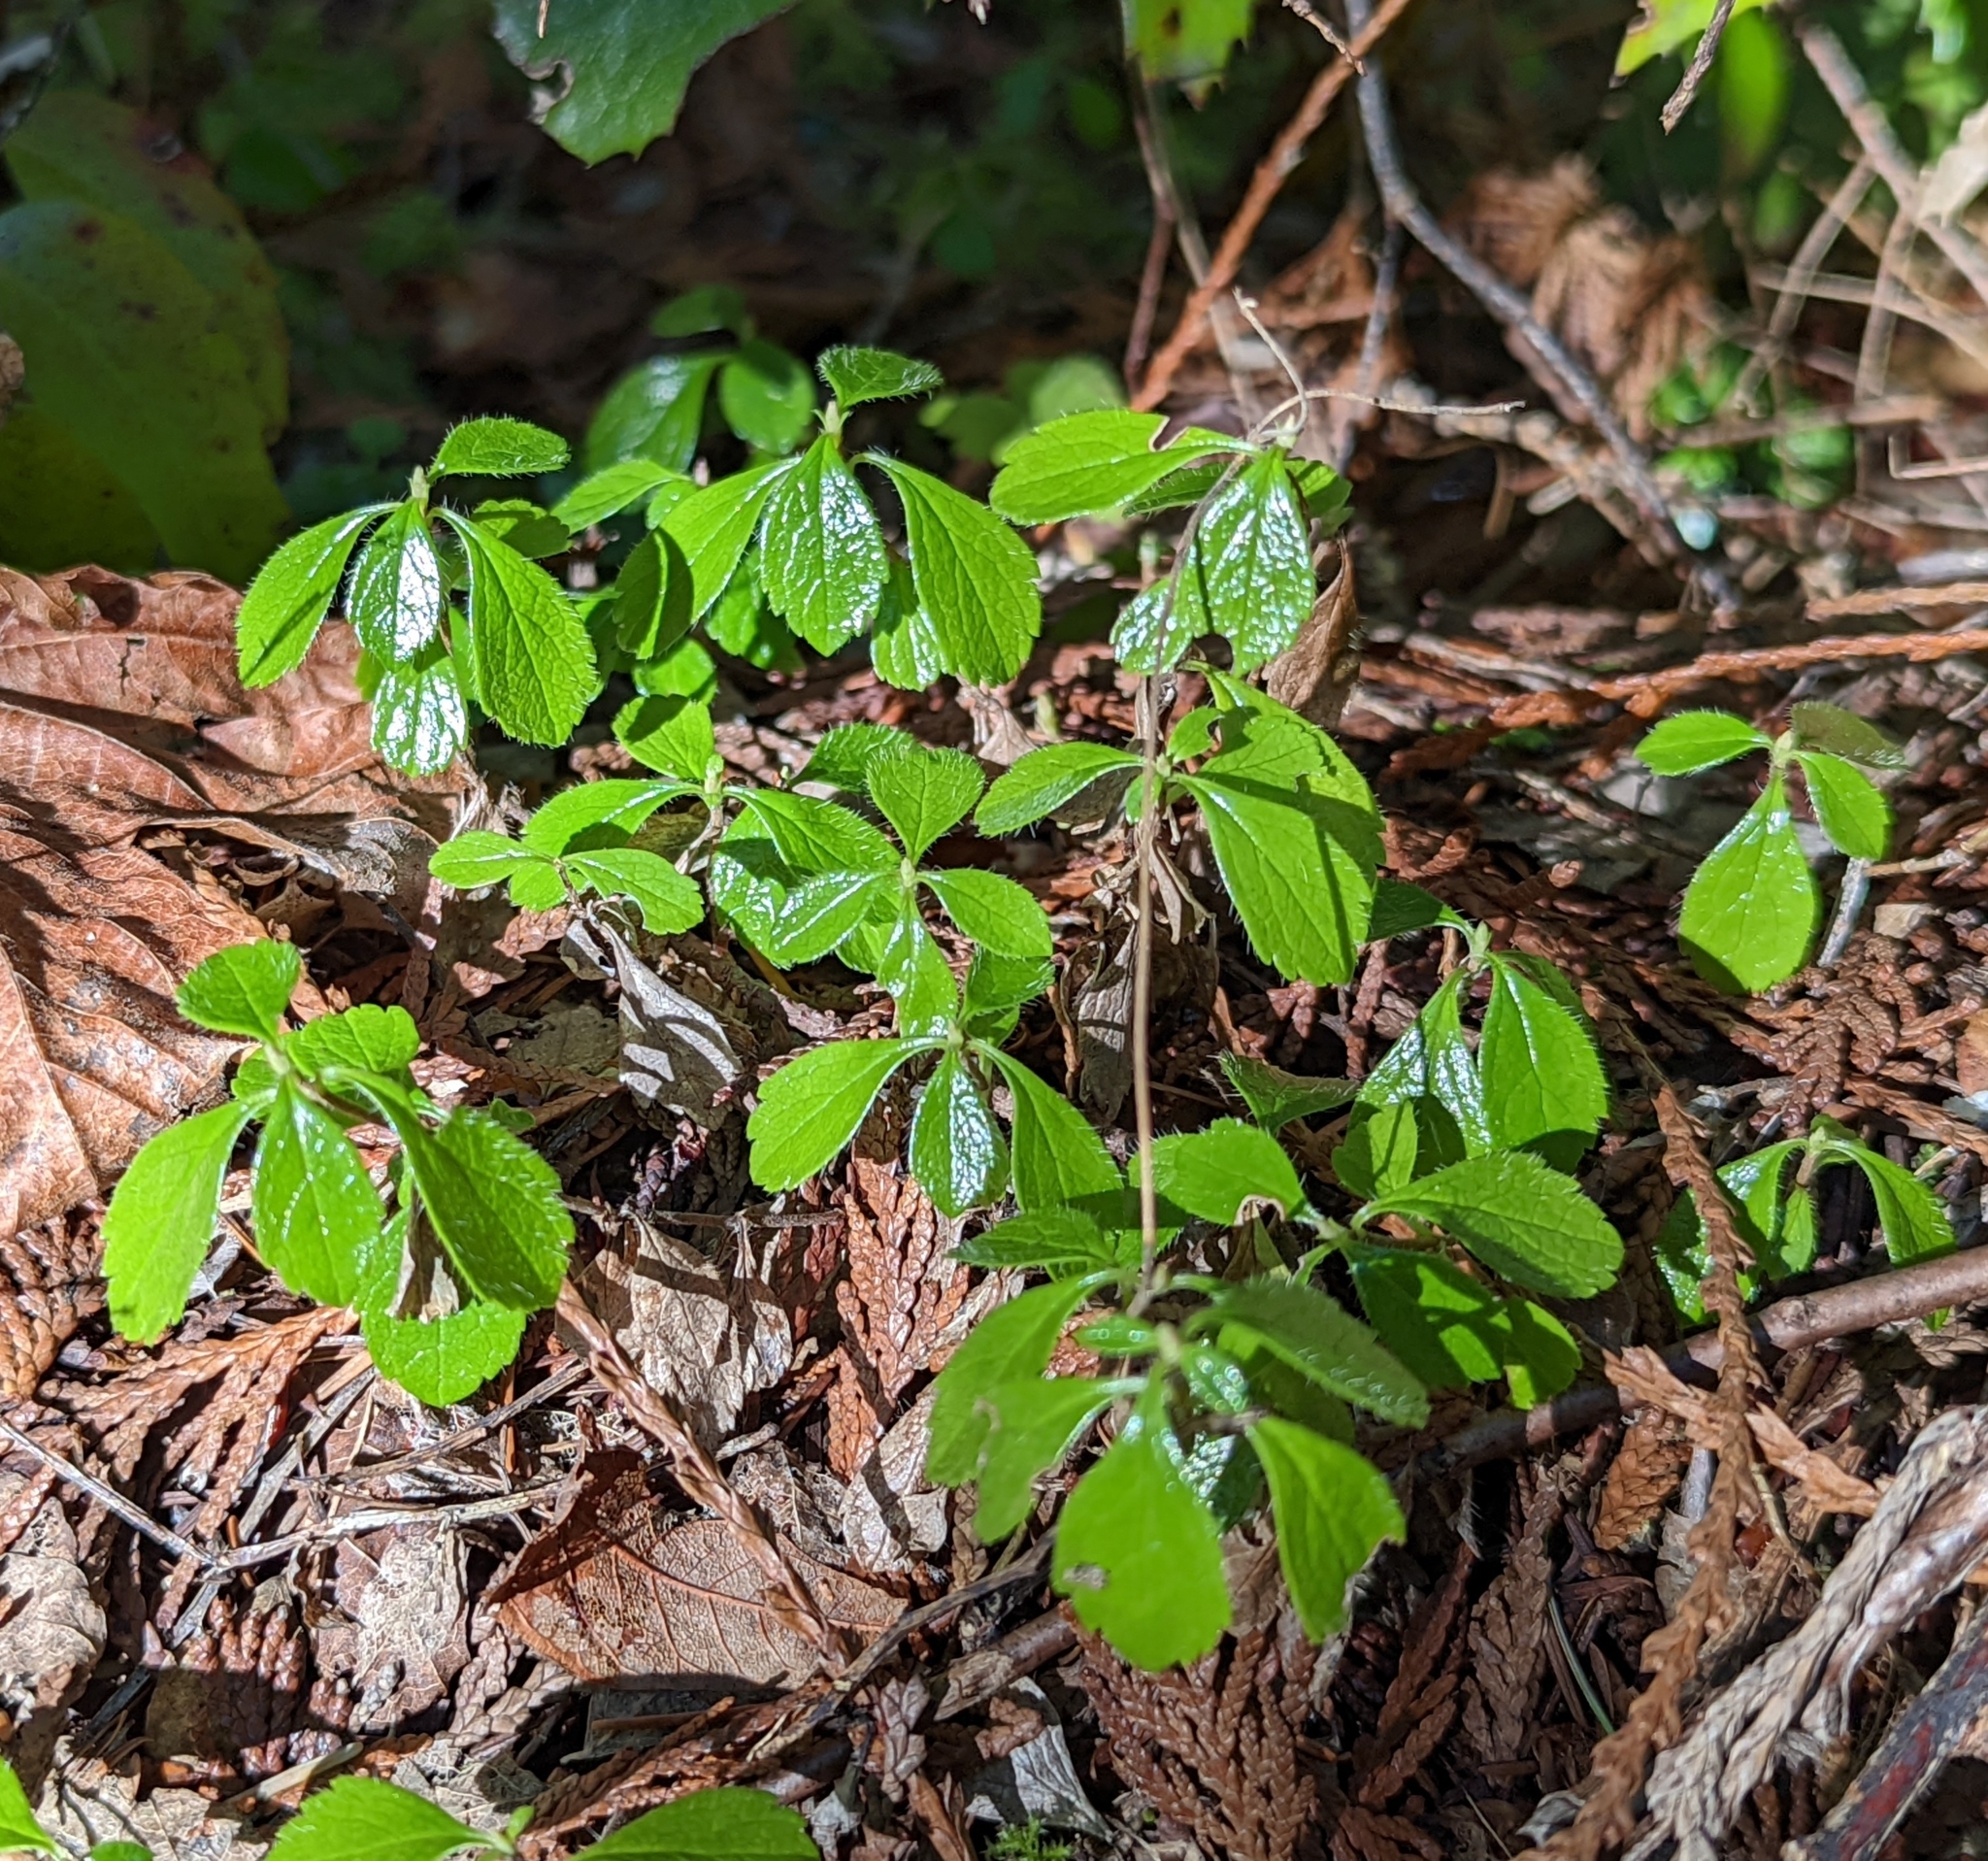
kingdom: Plantae
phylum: Tracheophyta
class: Magnoliopsida
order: Dipsacales
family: Caprifoliaceae
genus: Linnaea
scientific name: Linnaea borealis
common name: Twinflower
